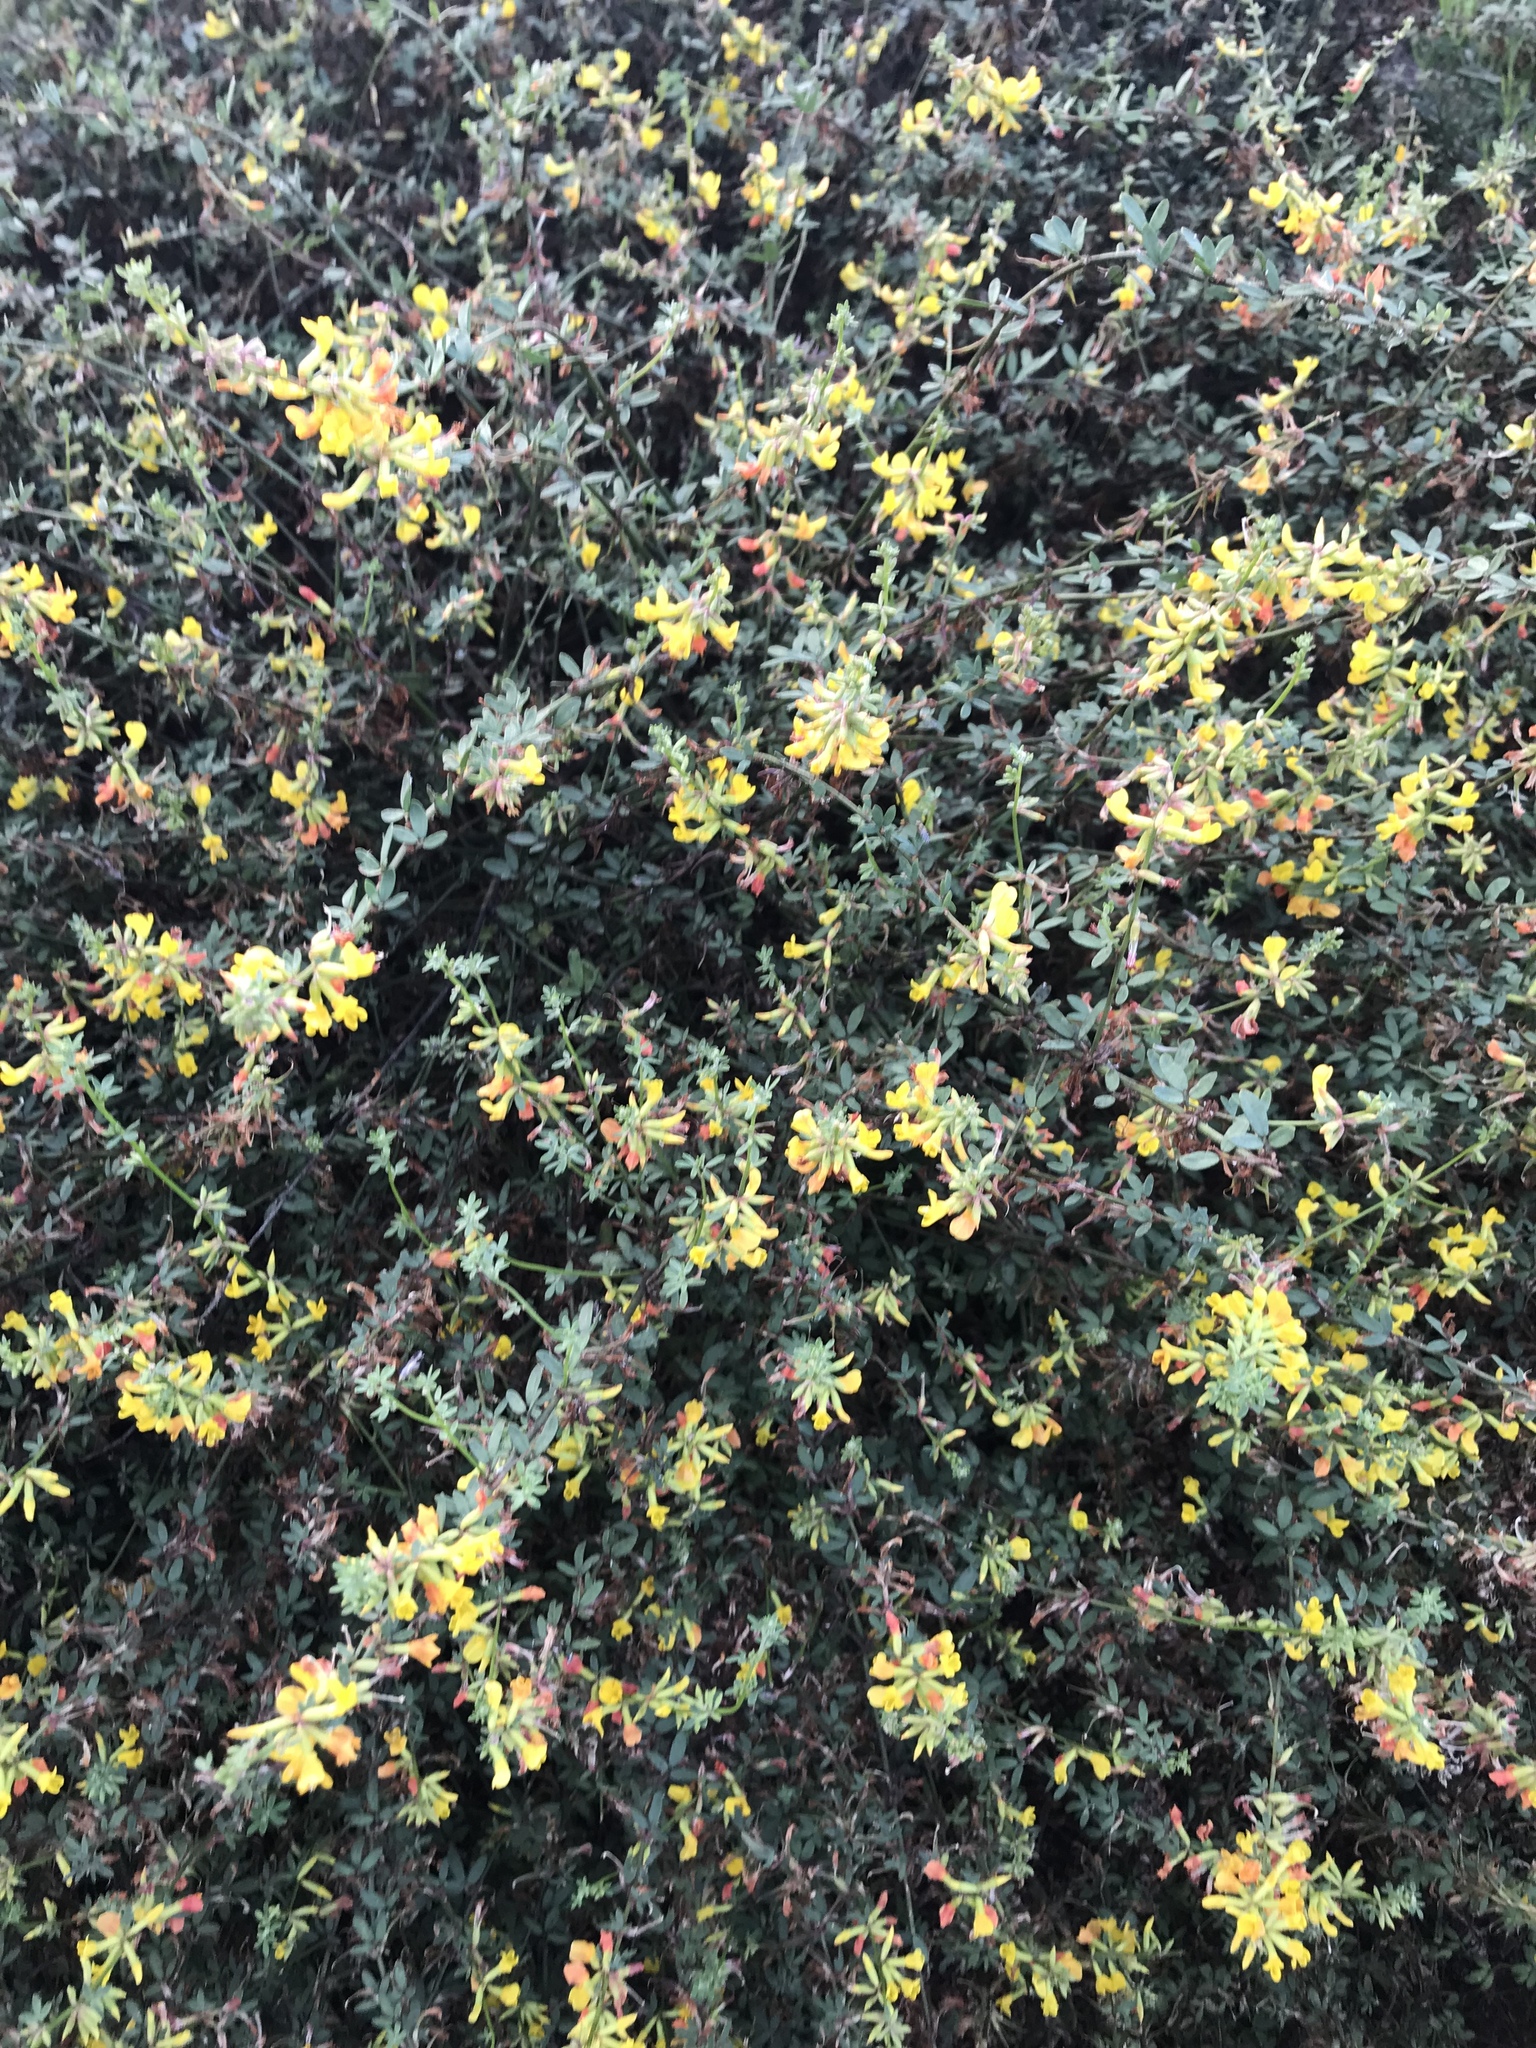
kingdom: Plantae
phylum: Tracheophyta
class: Magnoliopsida
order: Fabales
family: Fabaceae
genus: Acmispon
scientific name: Acmispon glaber
